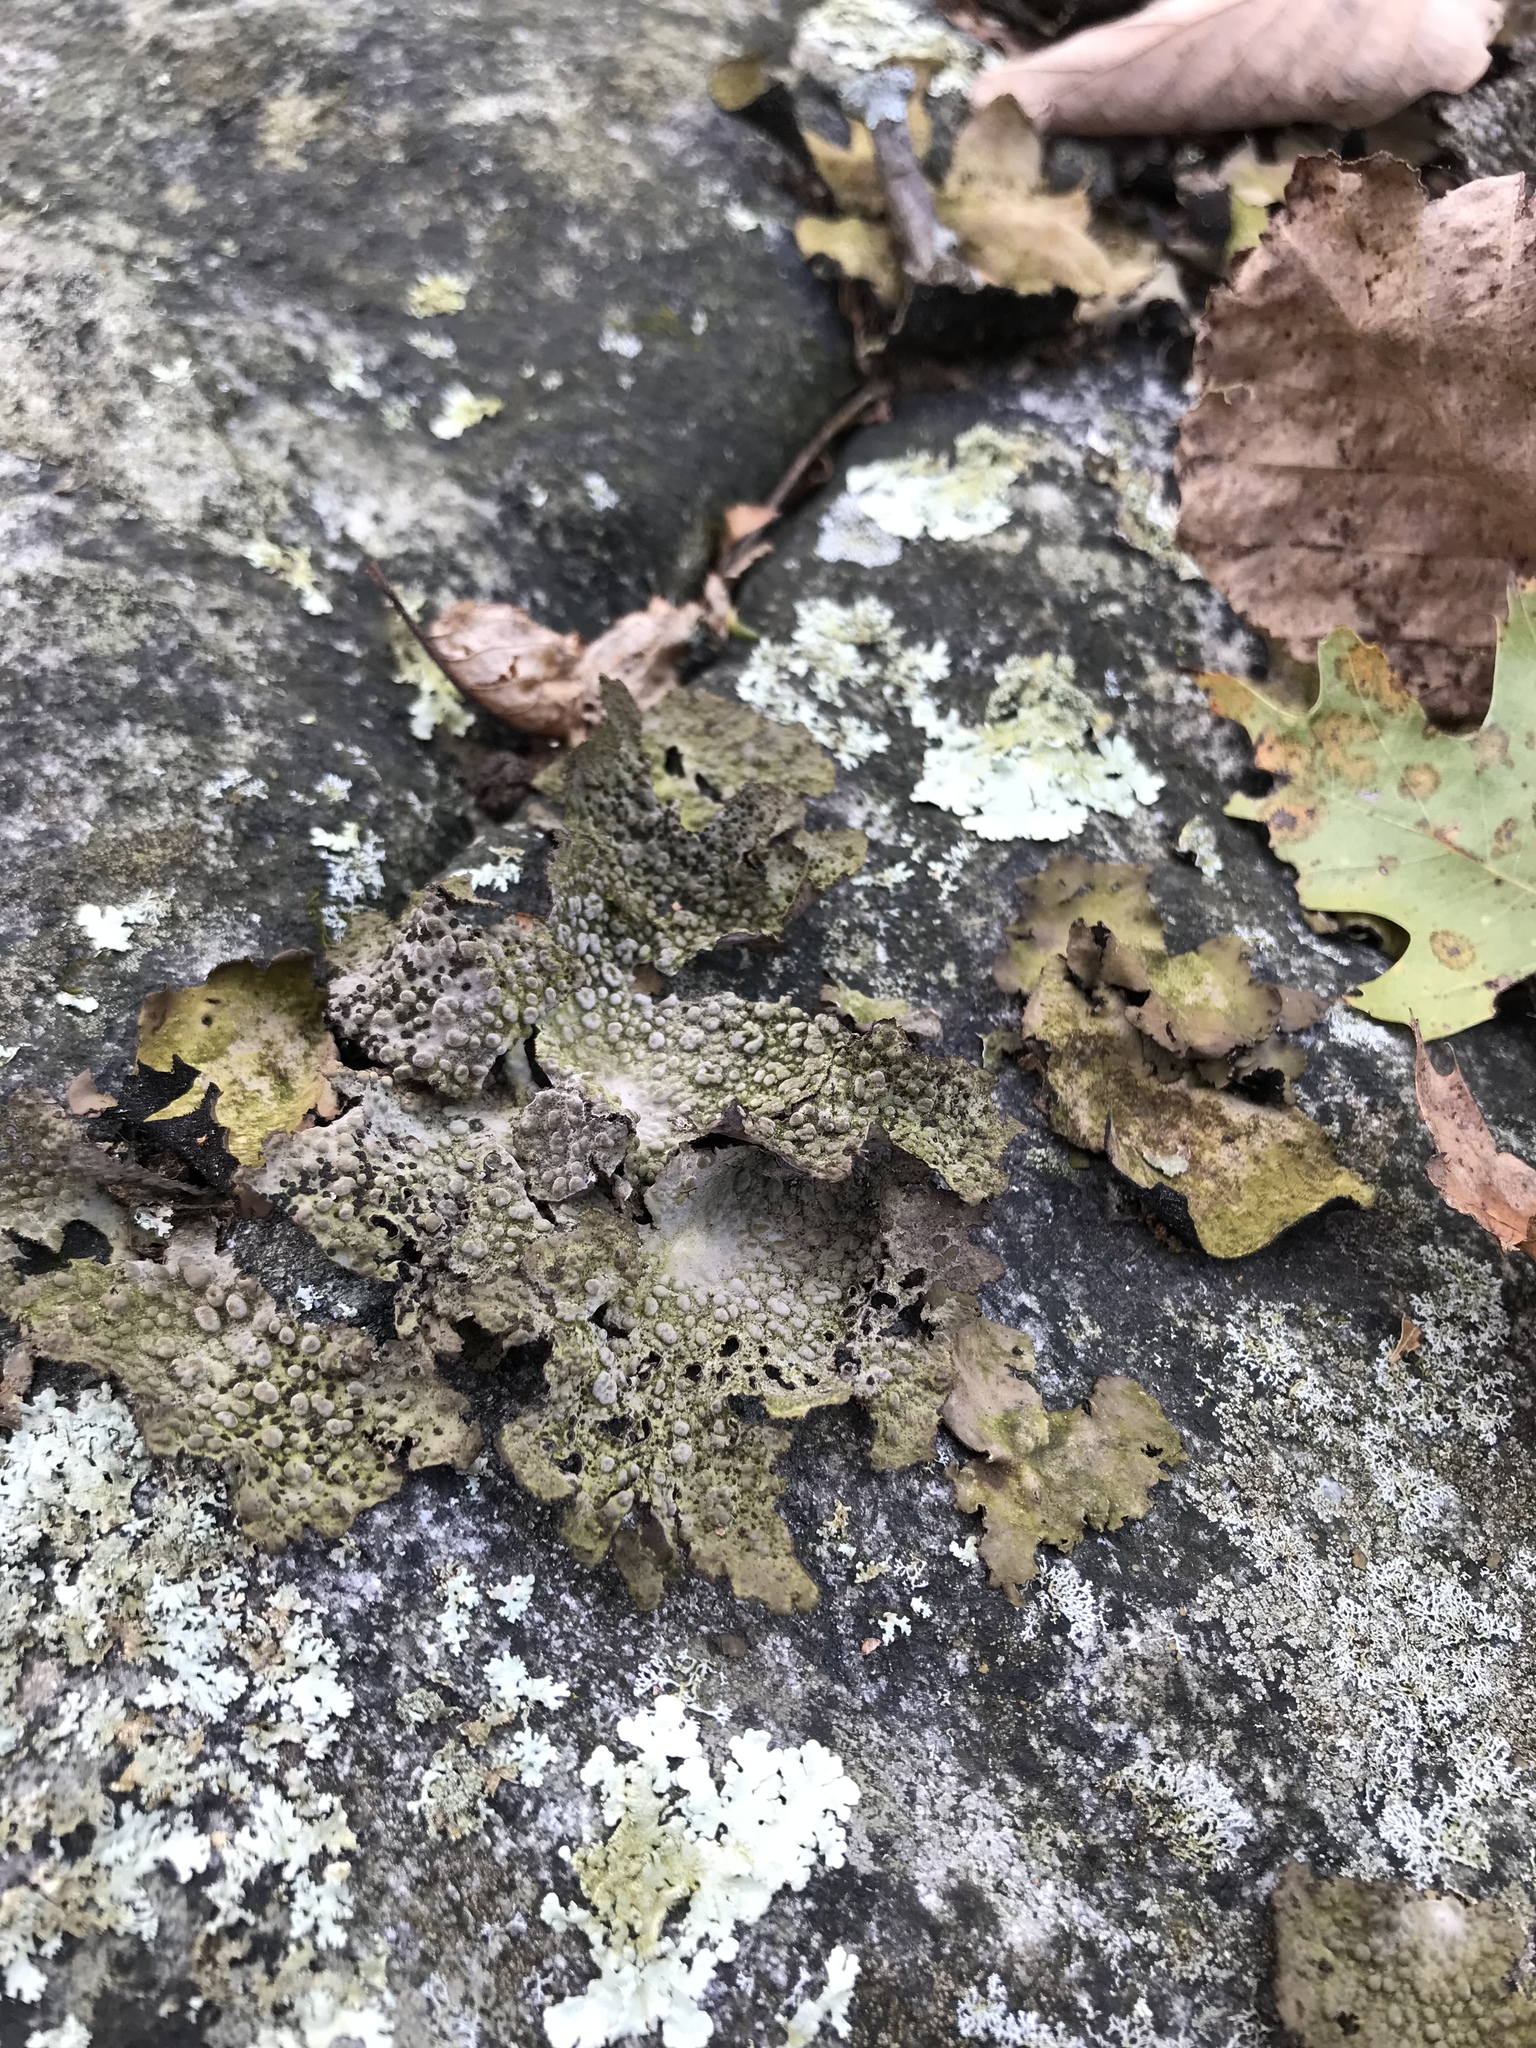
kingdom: Fungi
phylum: Ascomycota
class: Lecanoromycetes
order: Umbilicariales
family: Umbilicariaceae
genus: Lasallia
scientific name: Lasallia papulosa
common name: Common toadskin lichen
